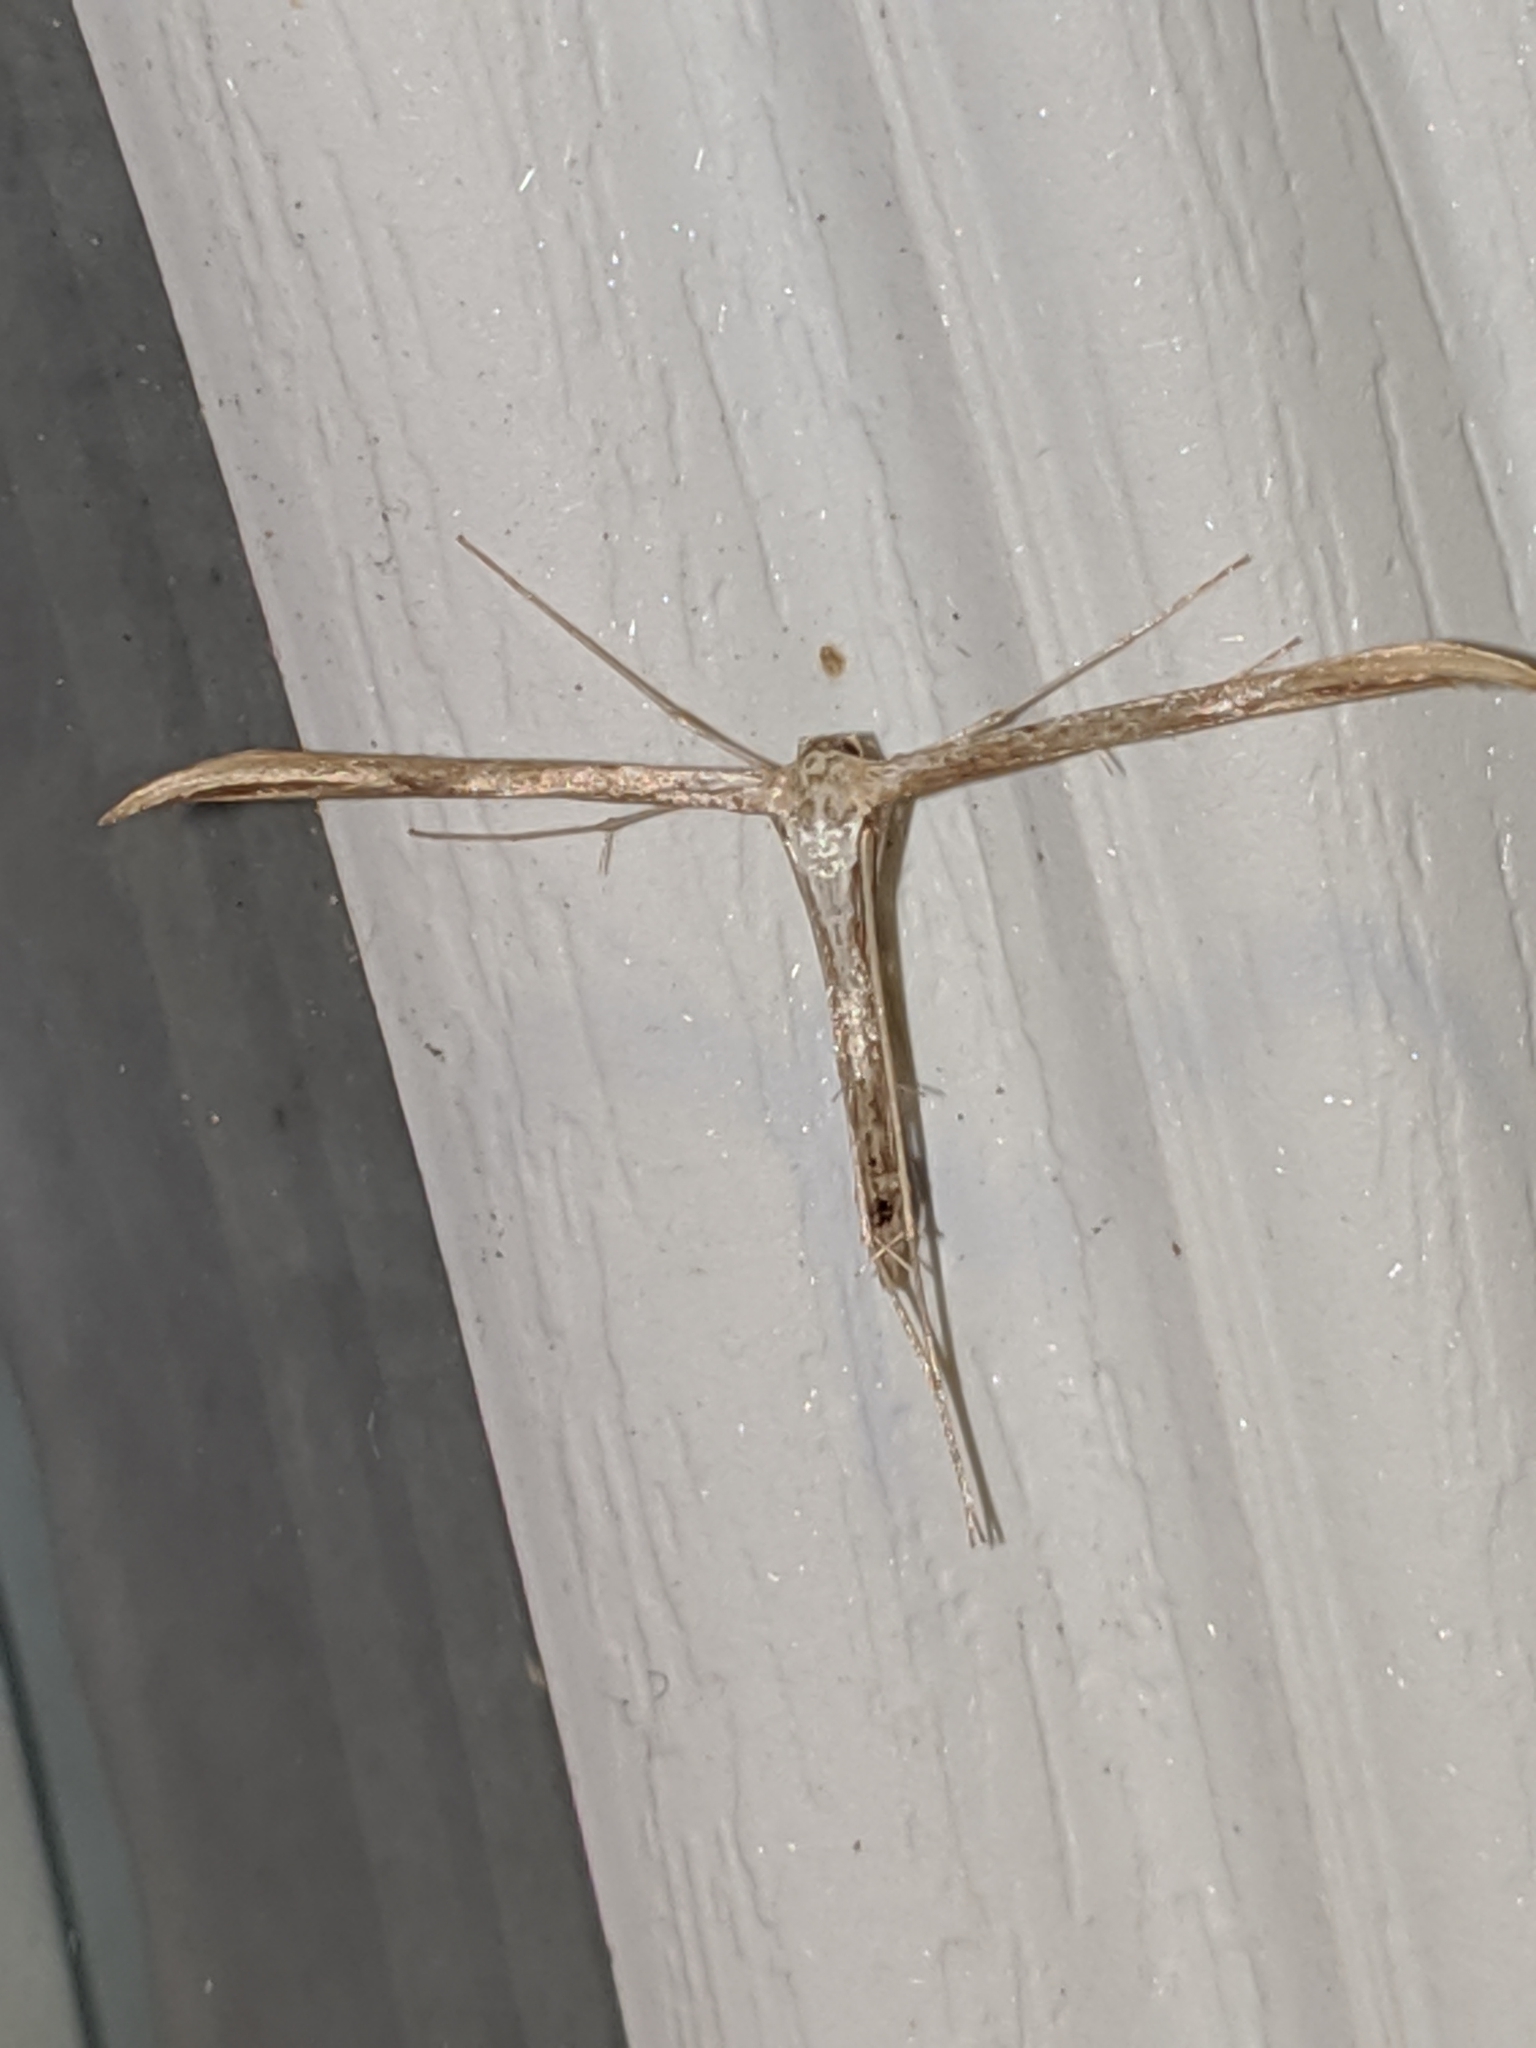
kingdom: Animalia
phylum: Arthropoda
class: Insecta
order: Lepidoptera
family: Pterophoridae
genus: Emmelina
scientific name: Emmelina monodactyla
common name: Common plume
